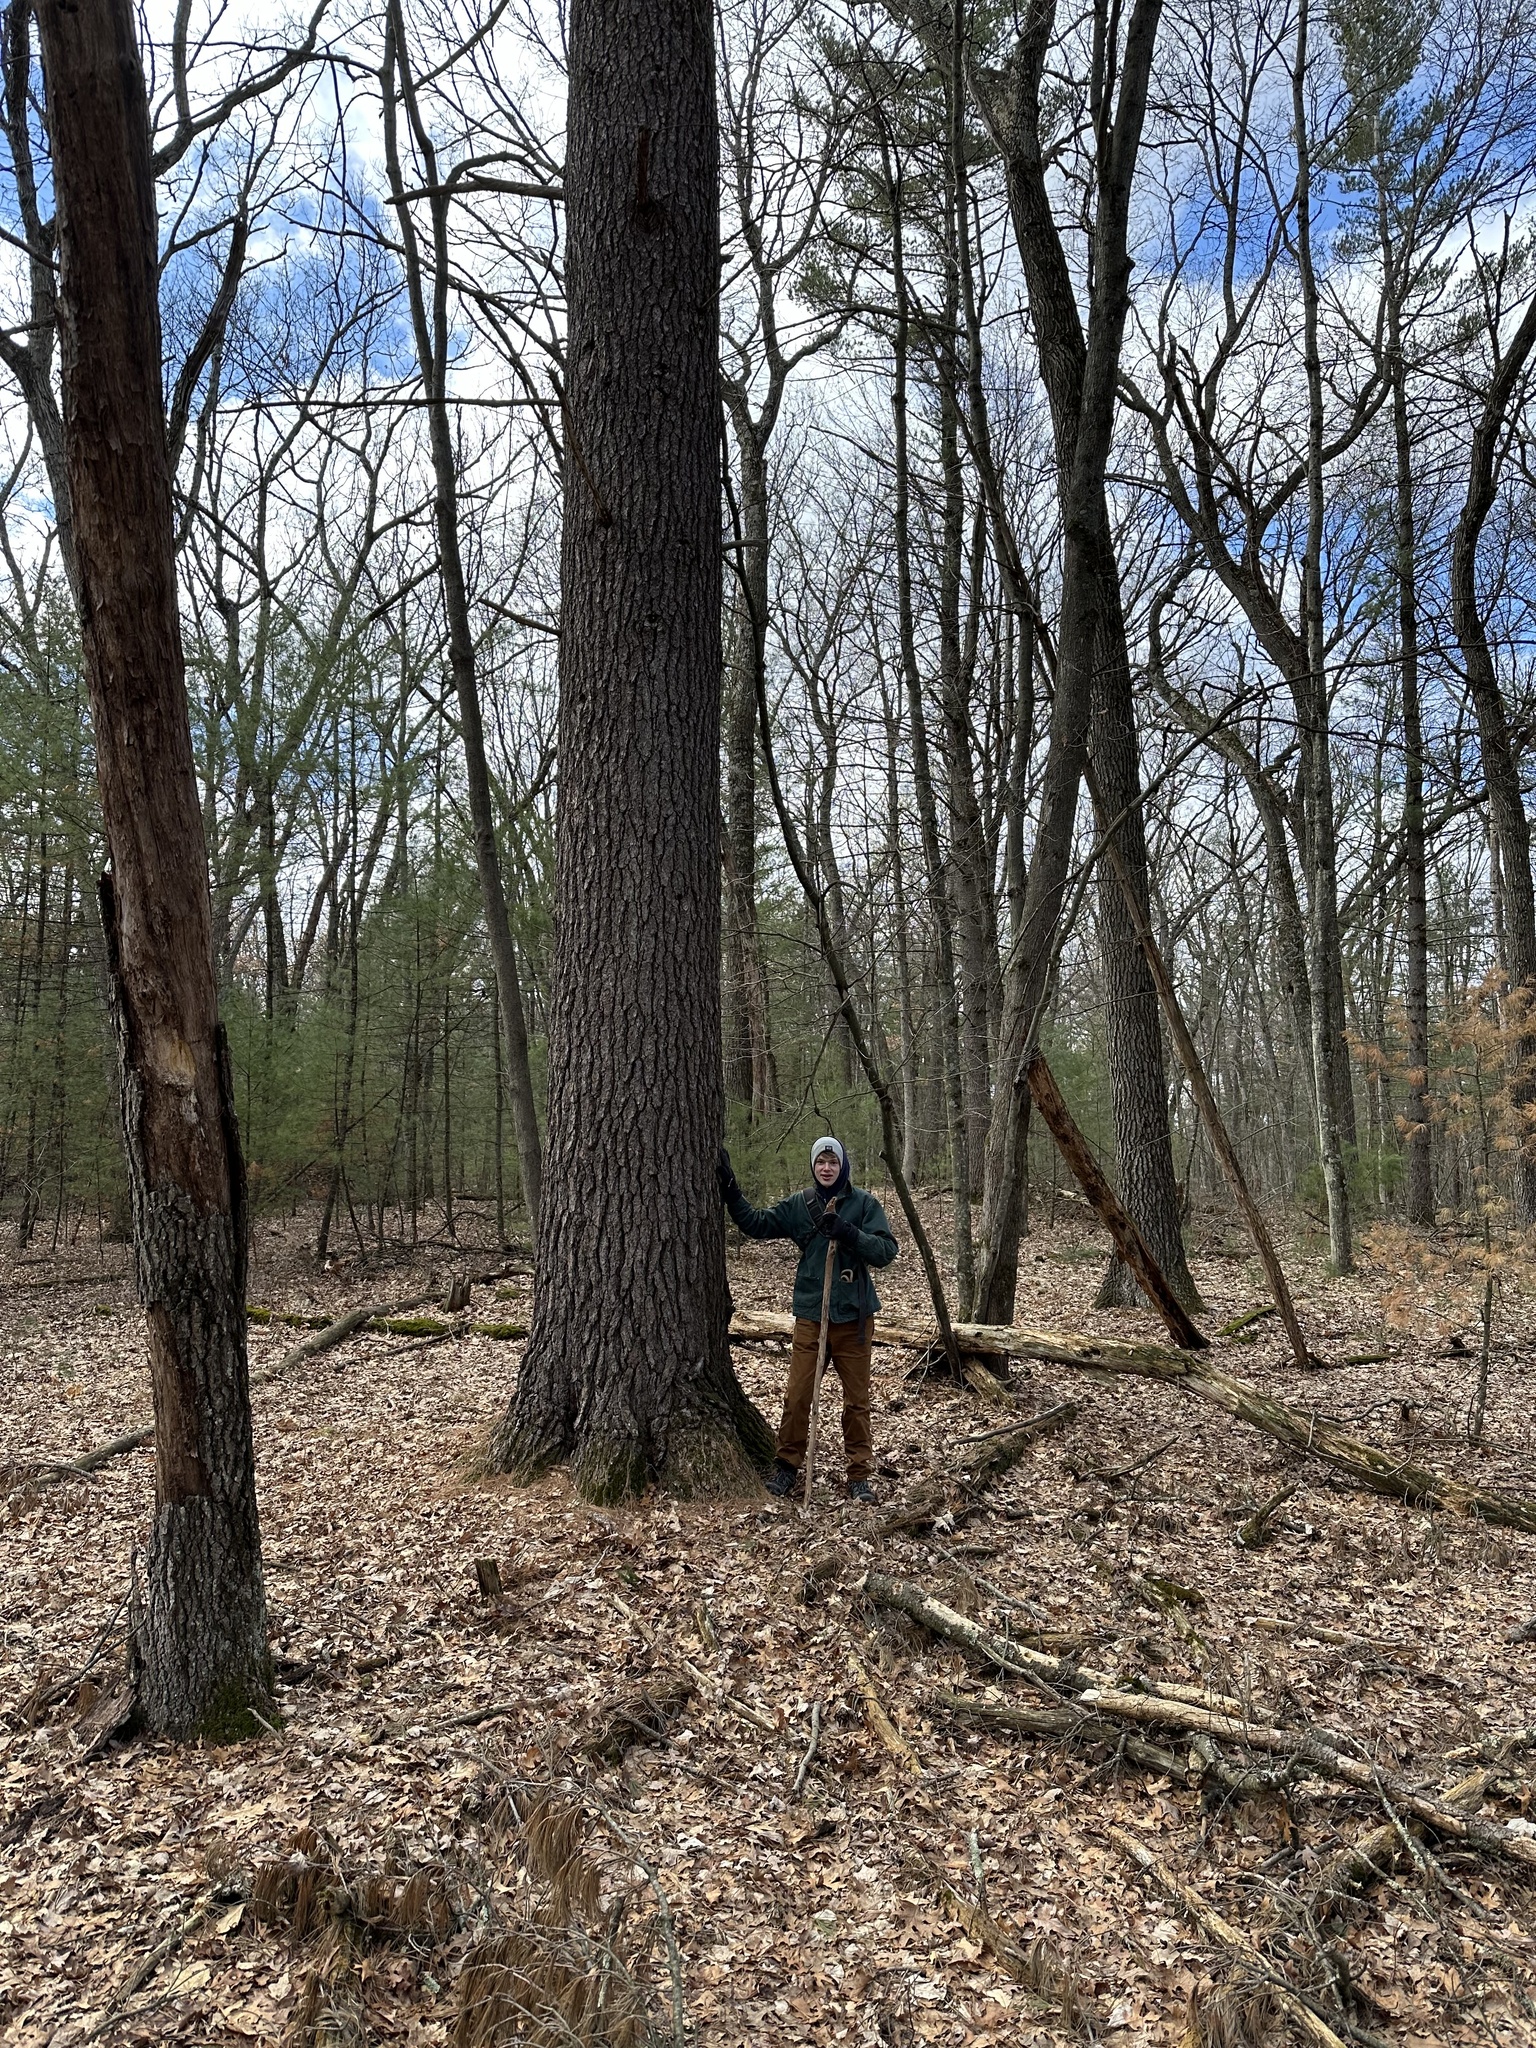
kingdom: Plantae
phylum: Tracheophyta
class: Pinopsida
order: Pinales
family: Pinaceae
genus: Pinus
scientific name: Pinus strobus
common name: Weymouth pine
